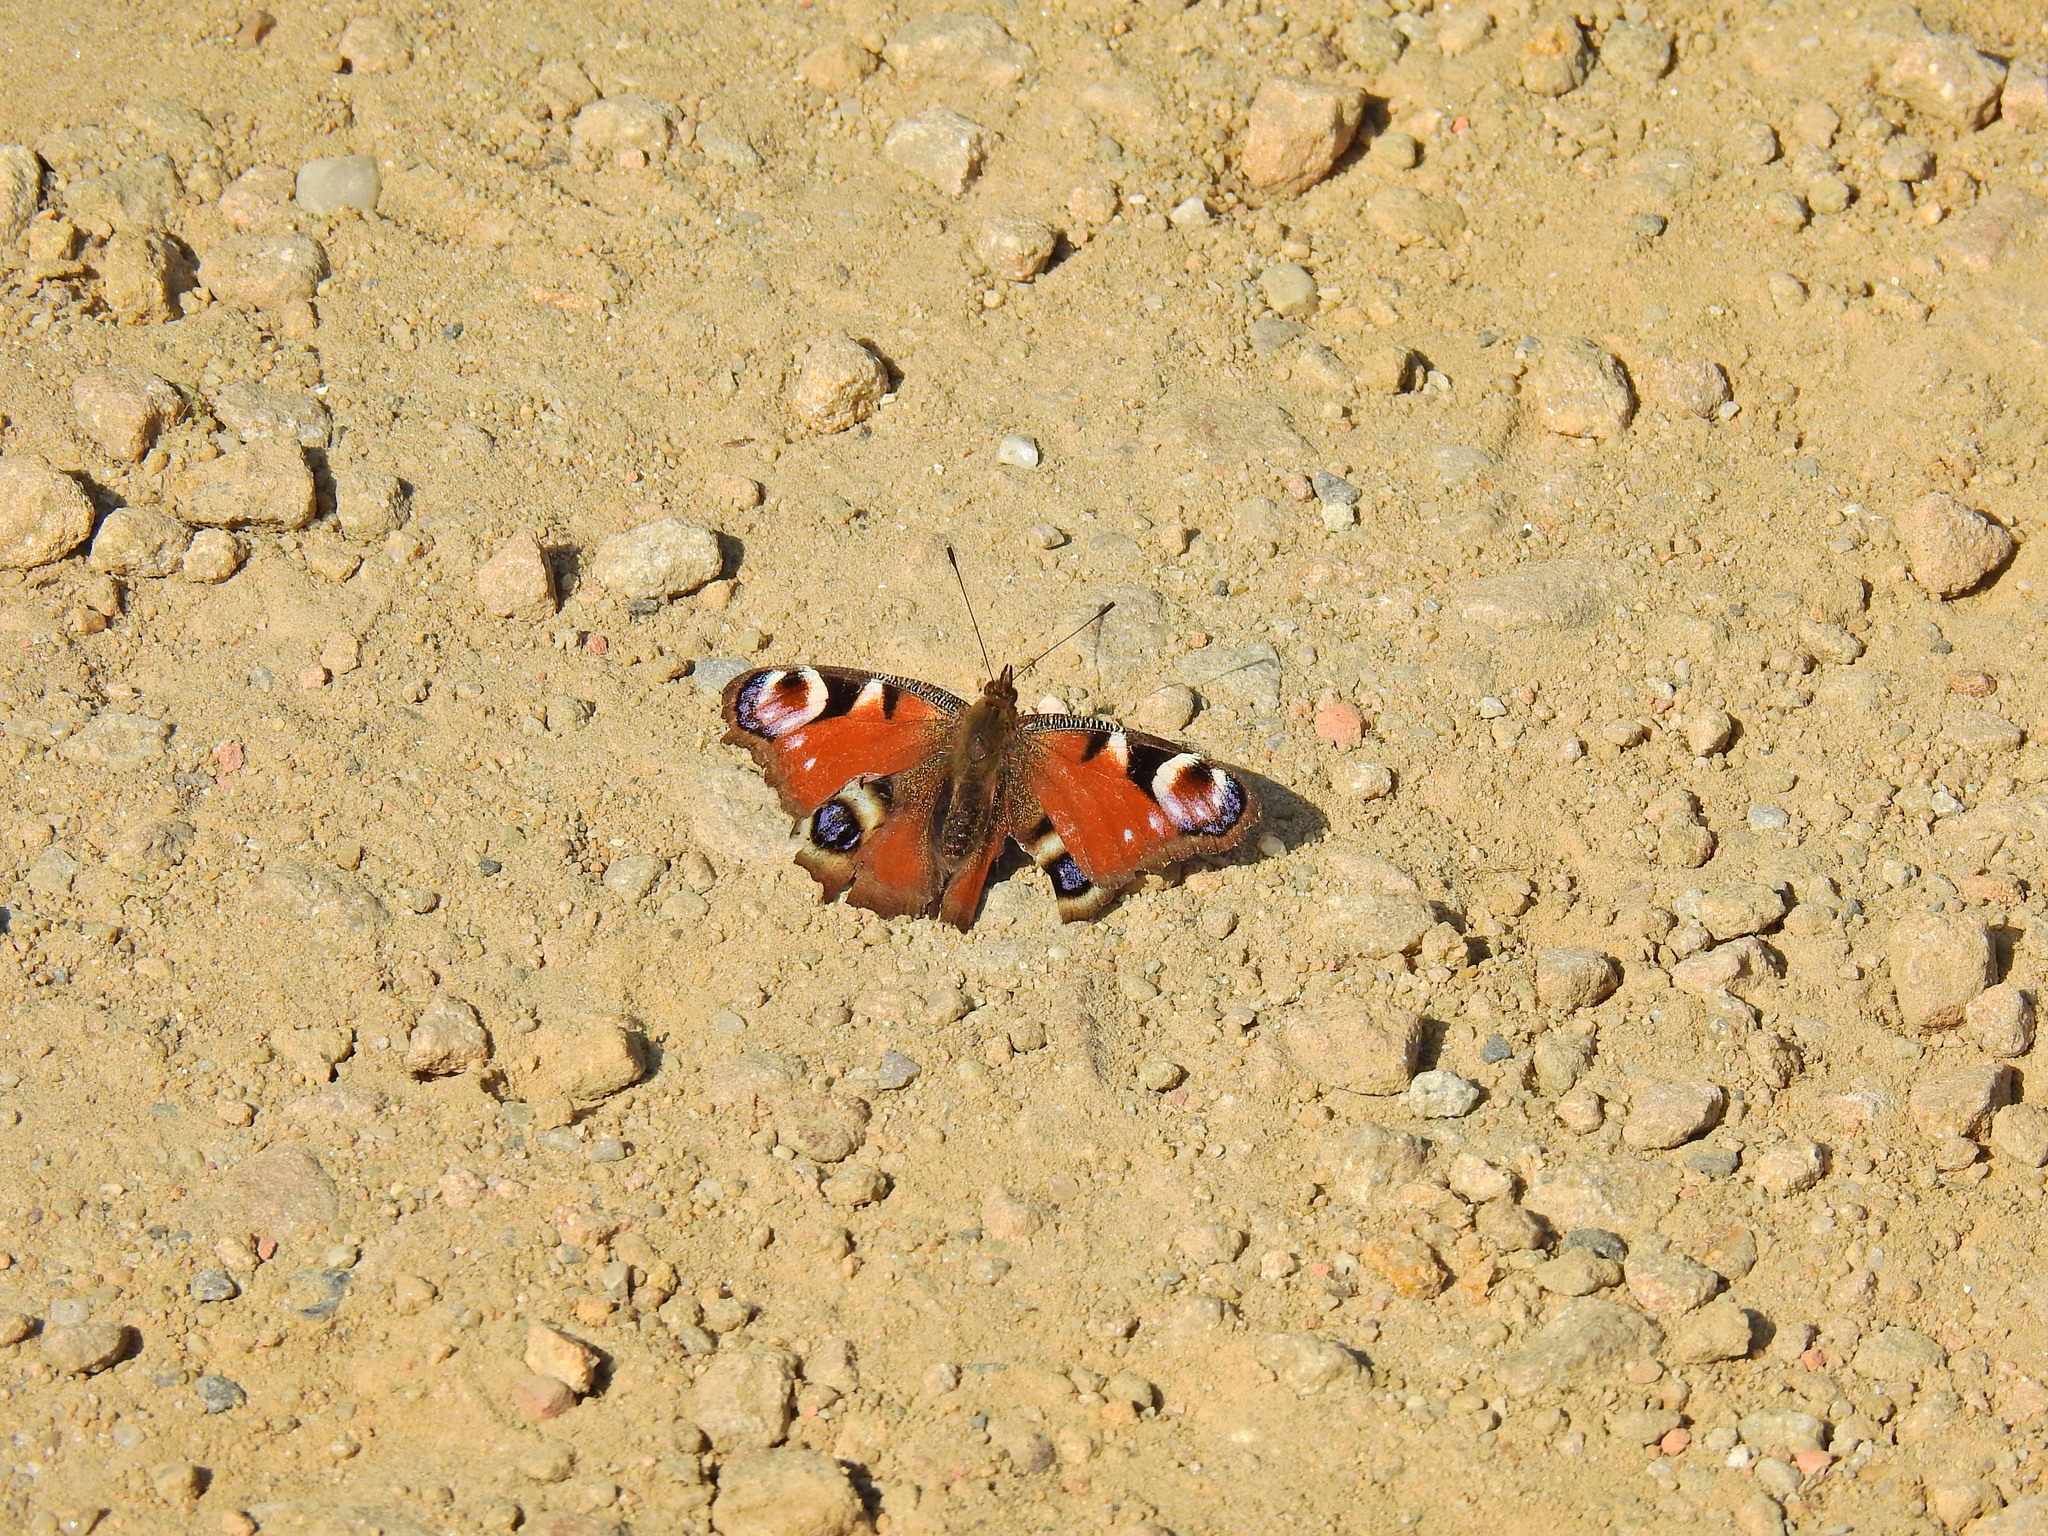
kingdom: Animalia
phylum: Arthropoda
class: Insecta
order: Lepidoptera
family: Nymphalidae
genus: Aglais
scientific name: Aglais io
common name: Peacock
